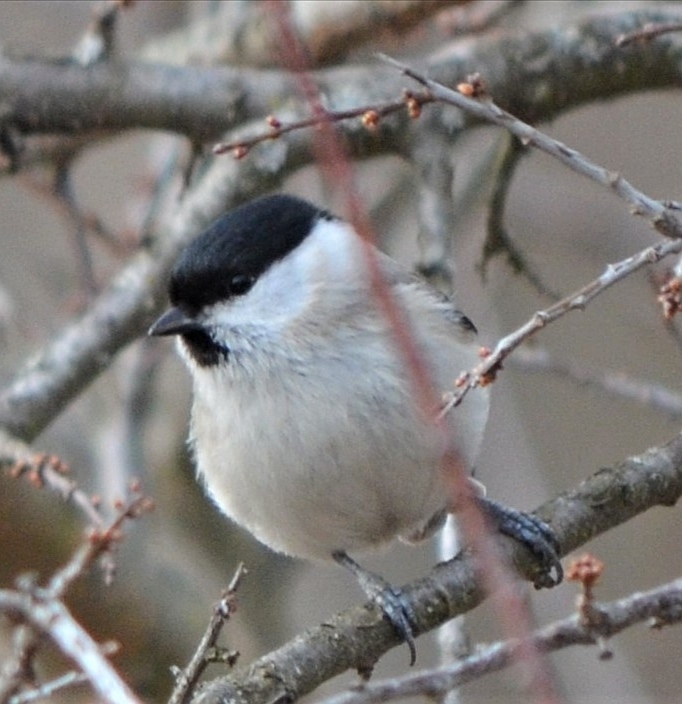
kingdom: Animalia
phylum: Chordata
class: Aves
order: Passeriformes
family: Paridae
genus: Poecile
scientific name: Poecile palustris
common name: Marsh tit
